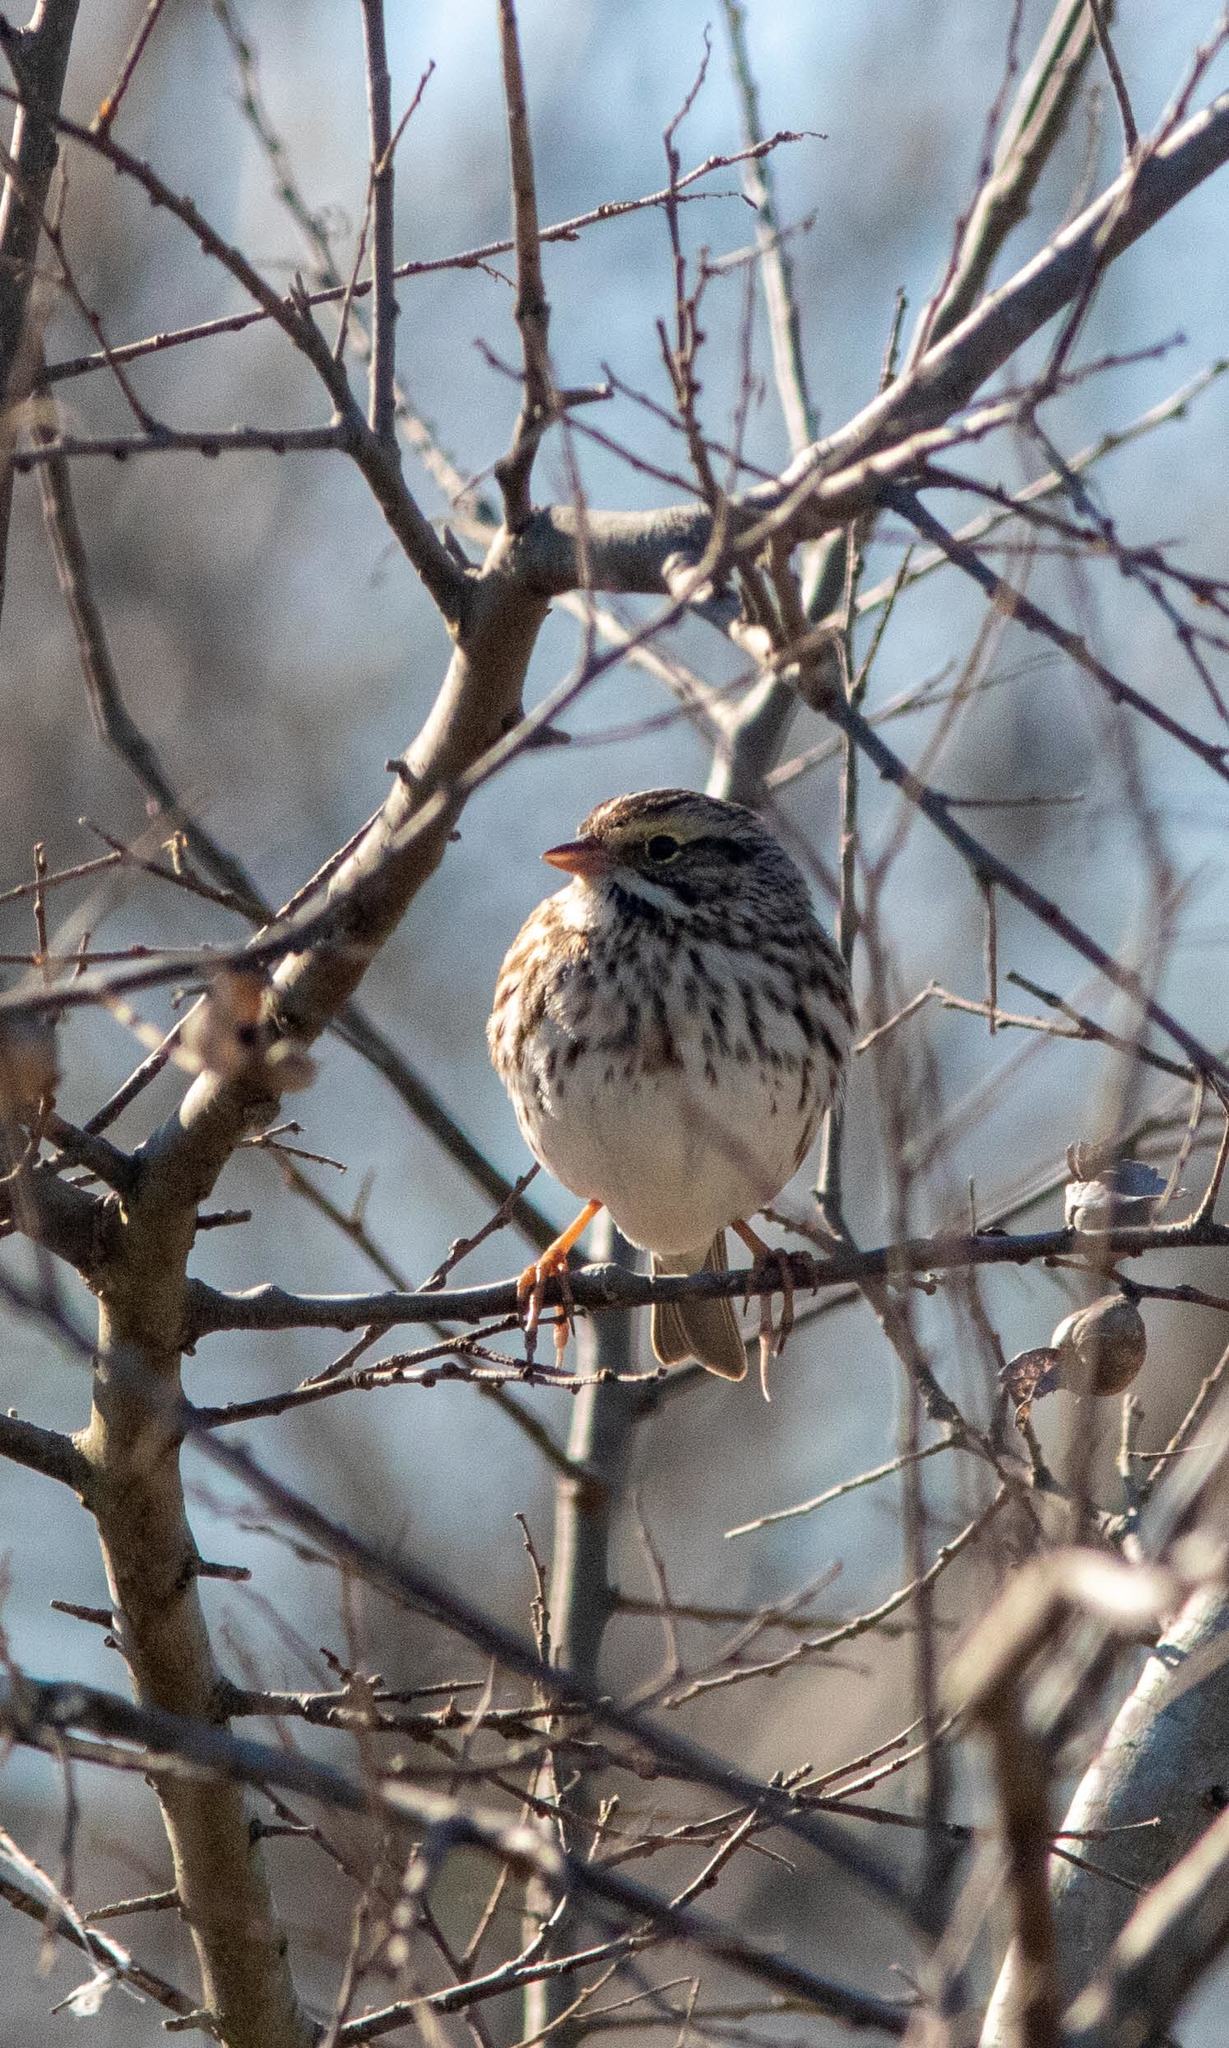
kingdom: Animalia
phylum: Chordata
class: Aves
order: Passeriformes
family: Passerellidae
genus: Passerculus
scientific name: Passerculus sandwichensis
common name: Savannah sparrow
